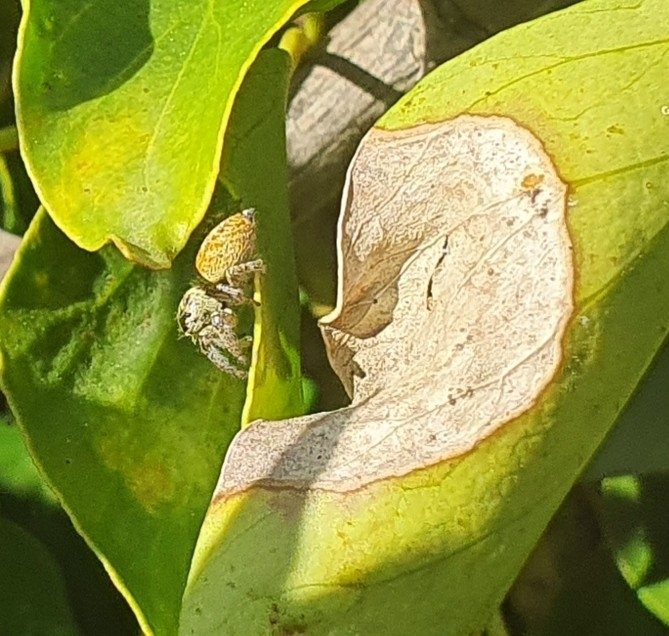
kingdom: Animalia
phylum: Arthropoda
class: Arachnida
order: Araneae
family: Salticidae
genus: Carrhotus
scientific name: Carrhotus xanthogramma
